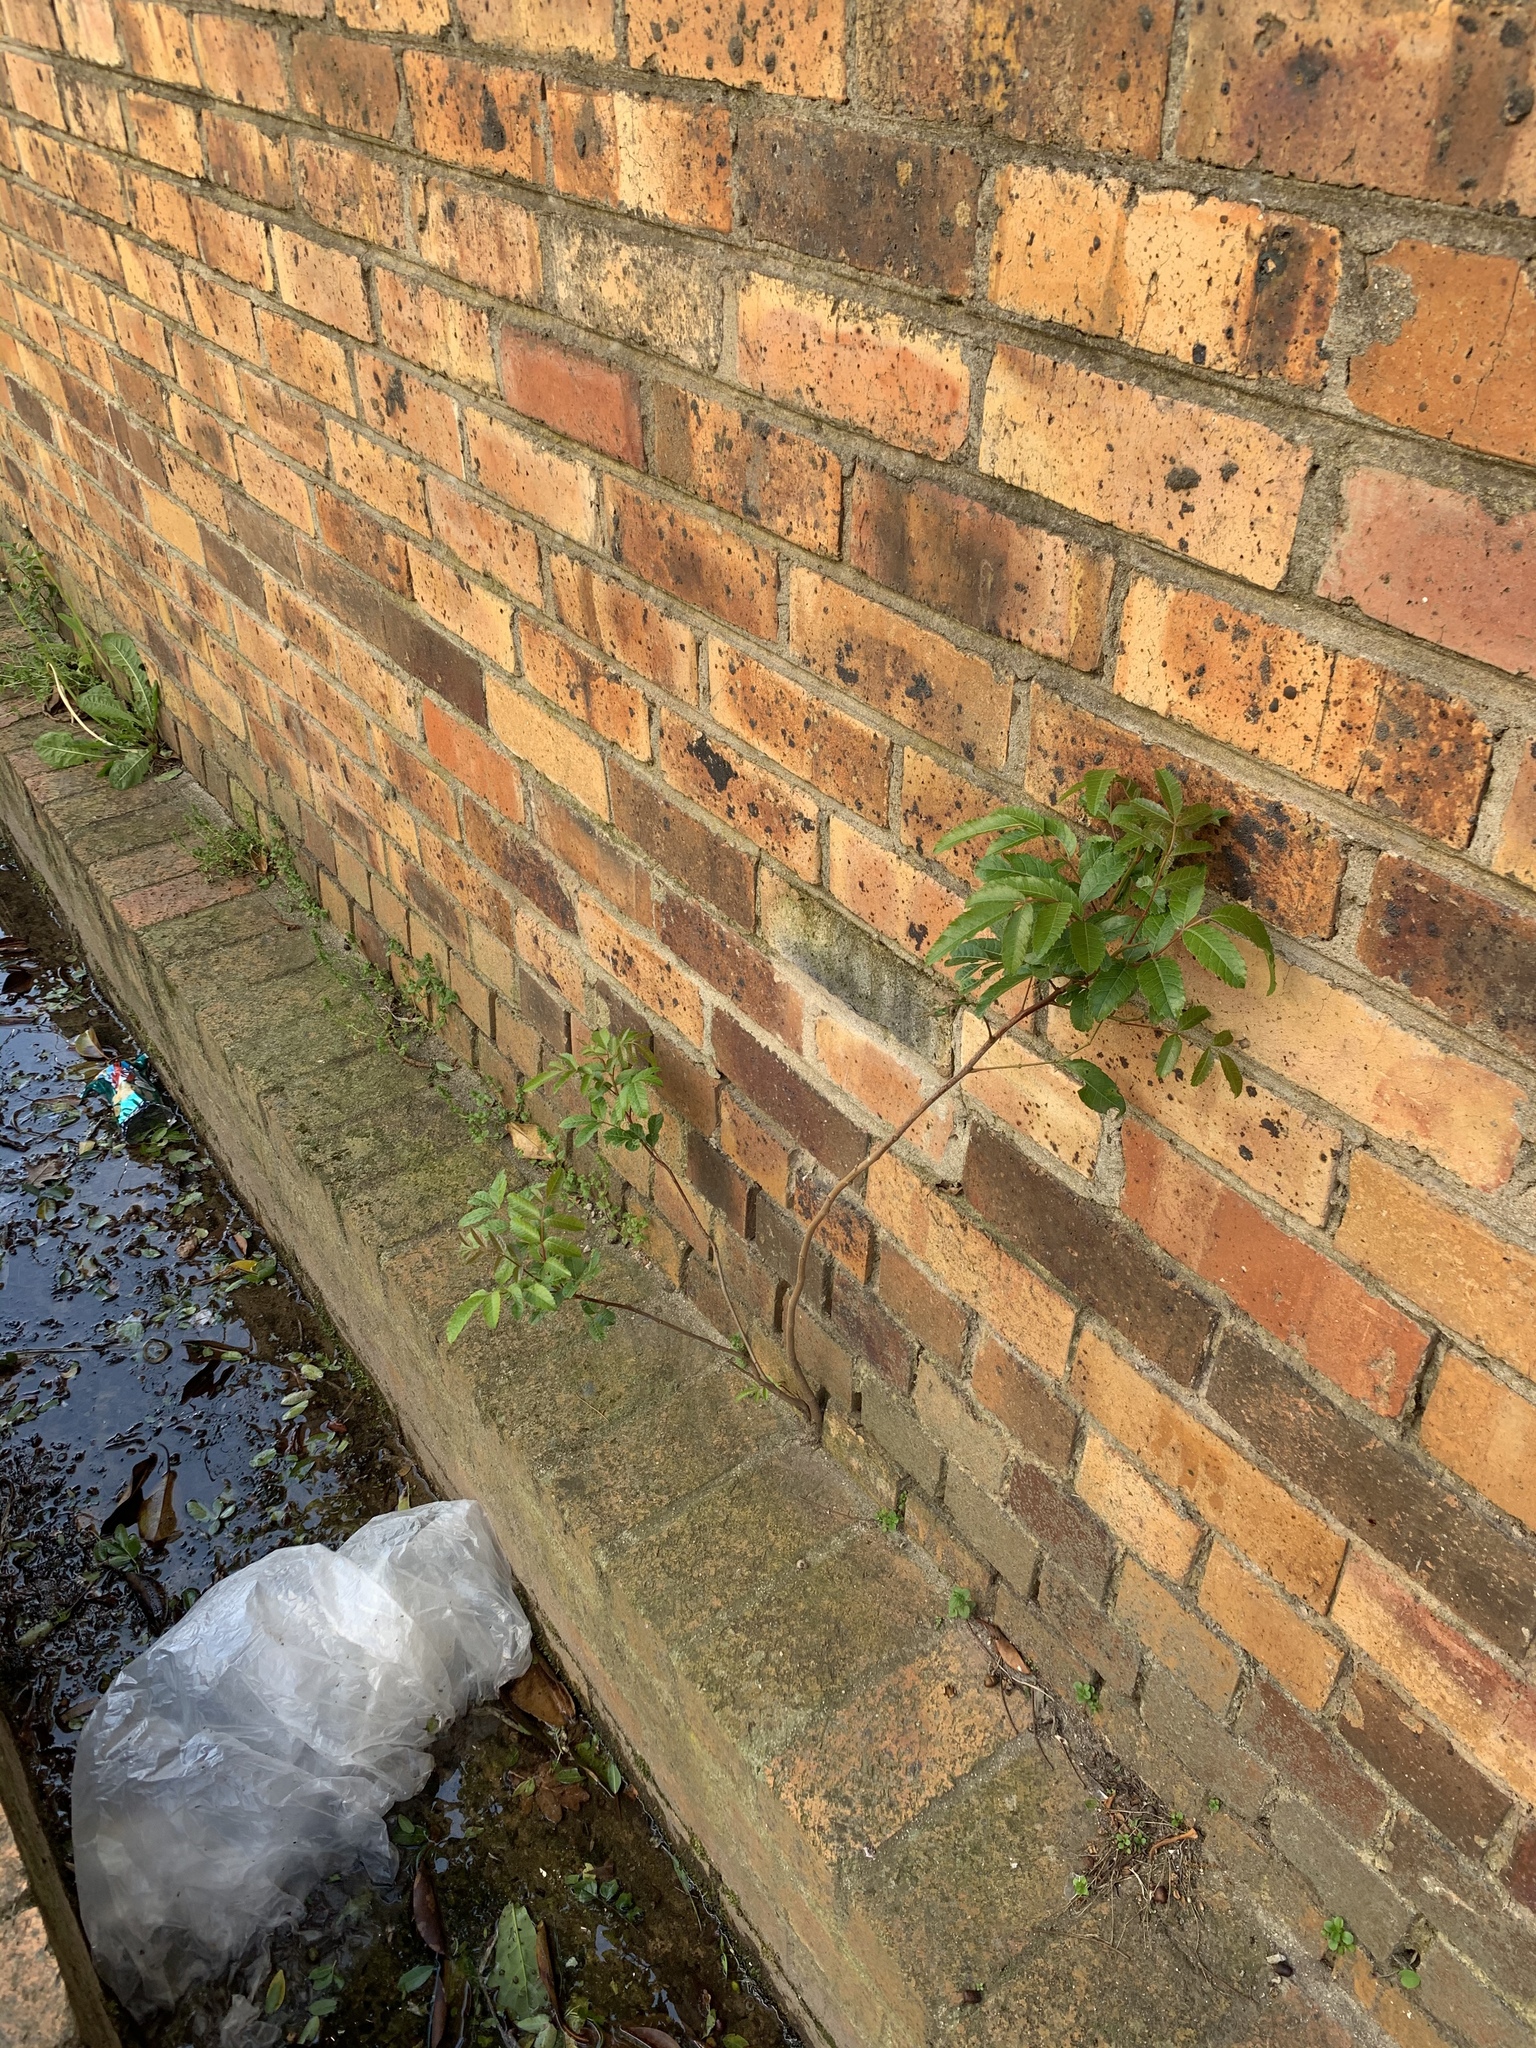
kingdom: Plantae
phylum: Tracheophyta
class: Magnoliopsida
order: Sapindales
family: Anacardiaceae
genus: Schinus
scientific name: Schinus terebinthifolia
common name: Brazilian peppertree
